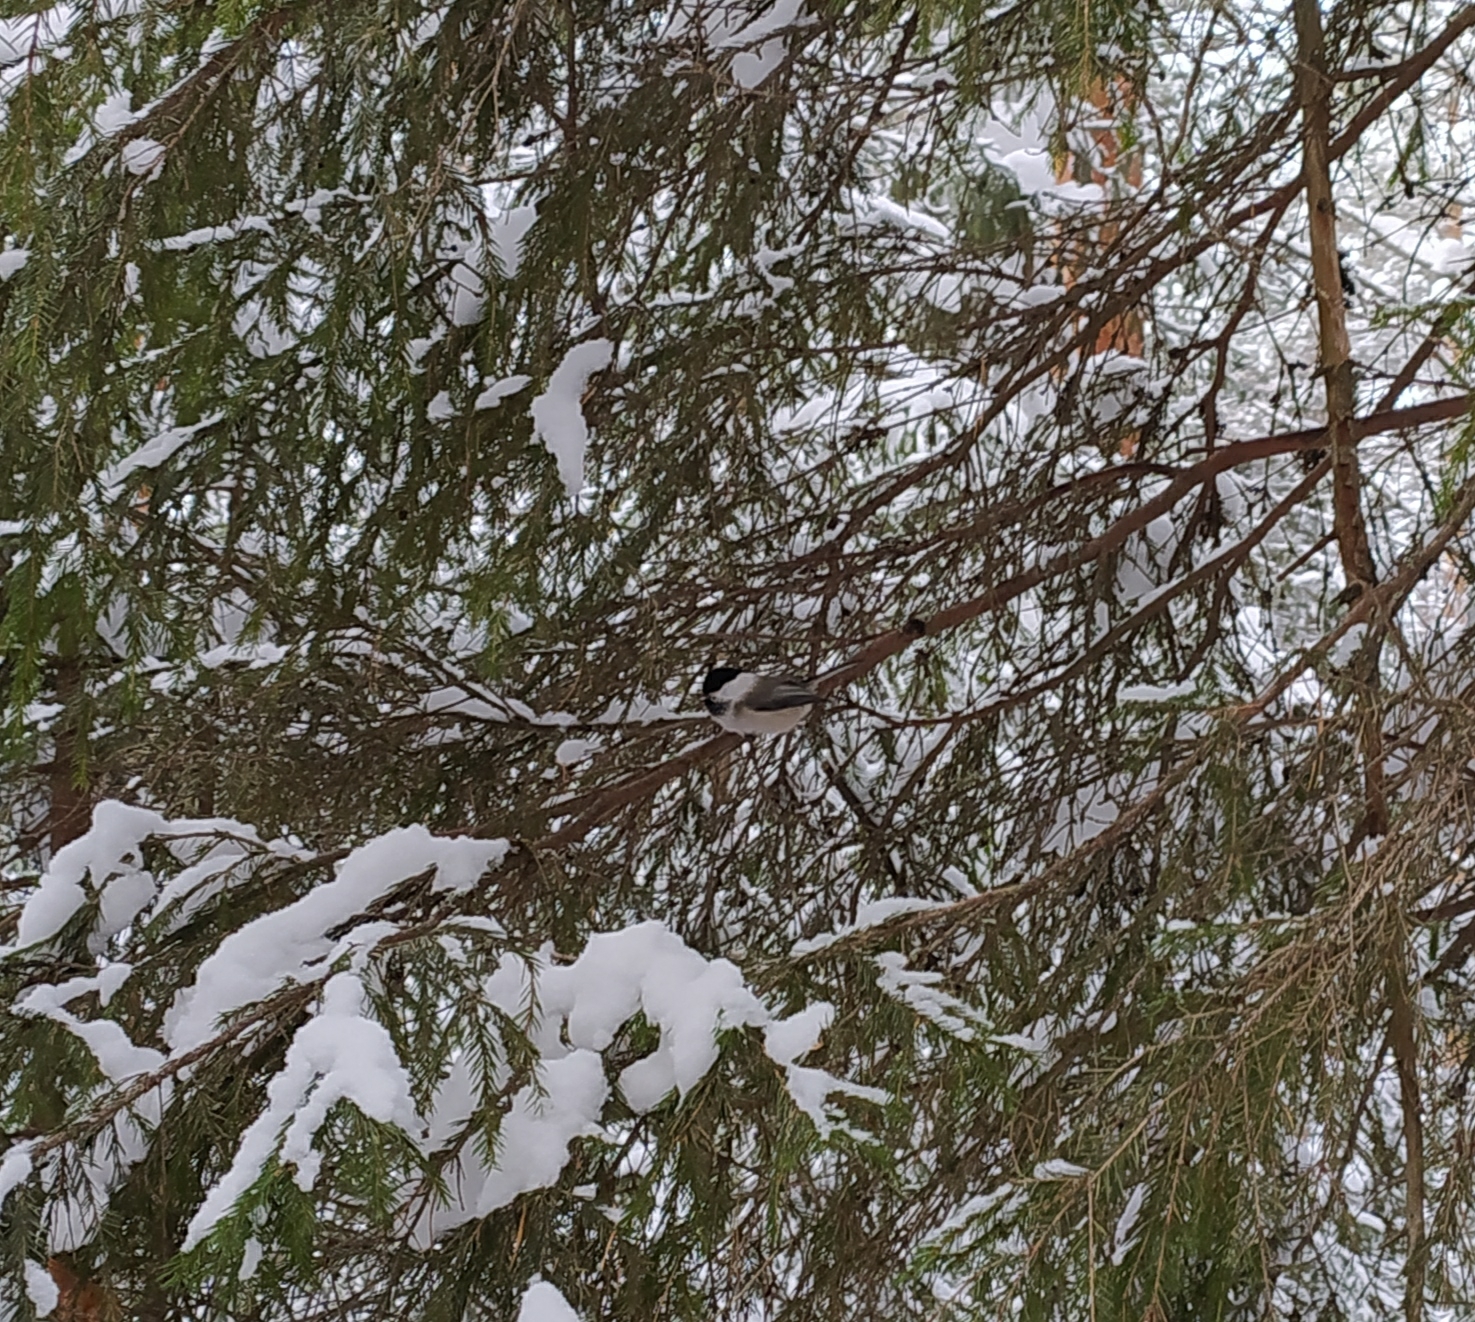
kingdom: Animalia
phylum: Chordata
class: Aves
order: Passeriformes
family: Paridae
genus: Poecile
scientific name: Poecile montanus
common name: Willow tit
